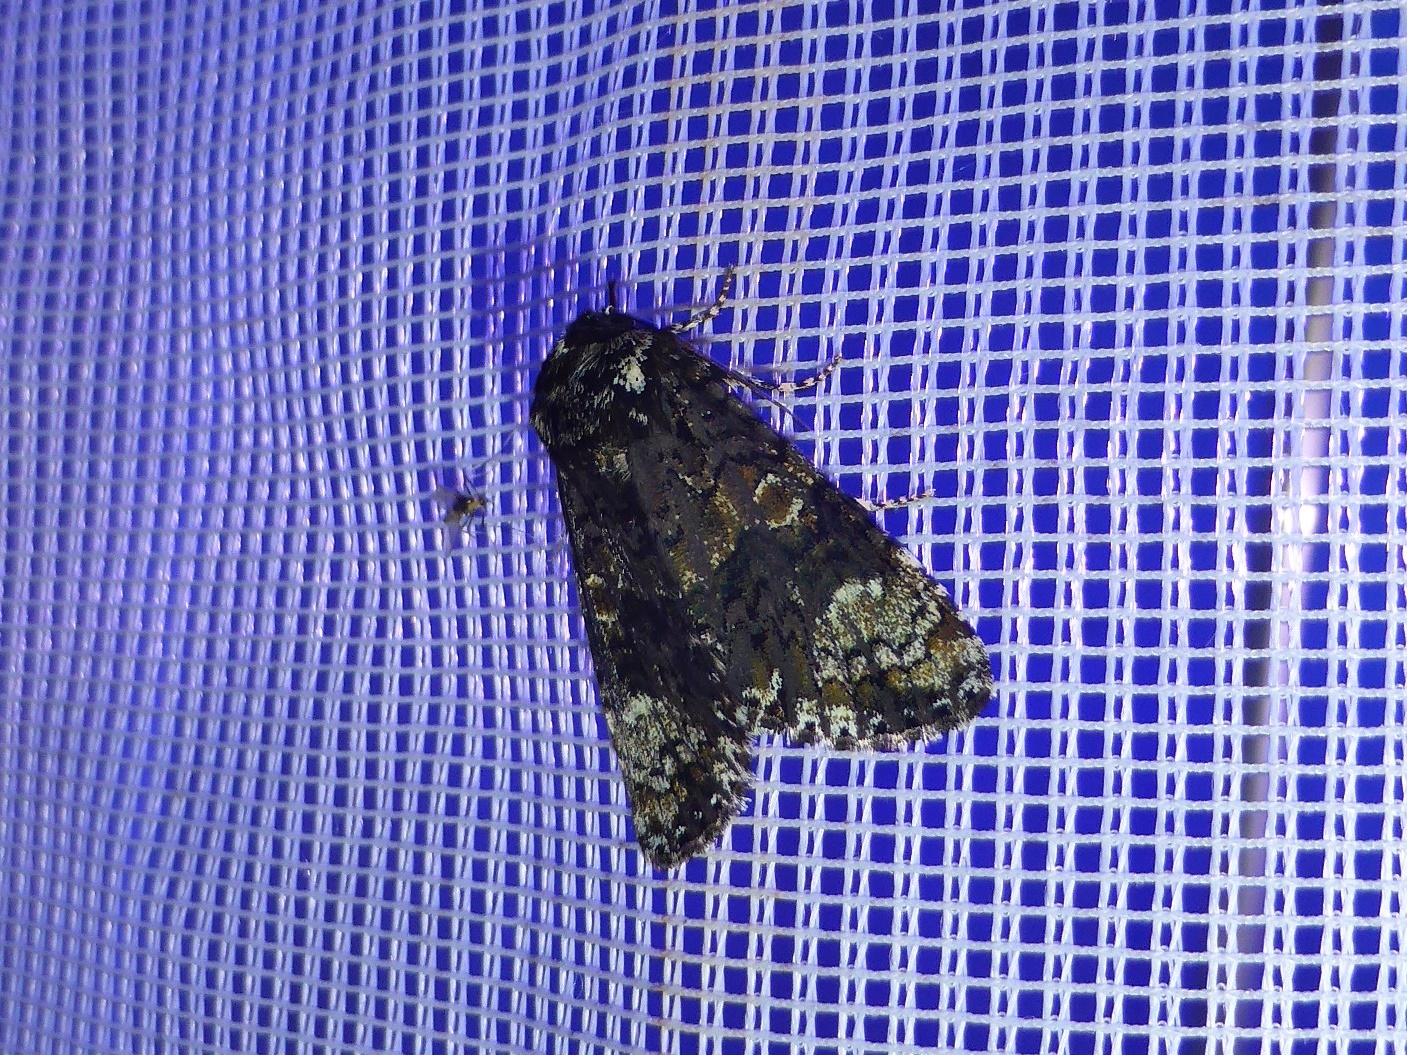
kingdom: Animalia
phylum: Arthropoda
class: Insecta
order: Lepidoptera
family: Noctuidae
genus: Craniophora
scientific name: Craniophora ligustri
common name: Coronet
